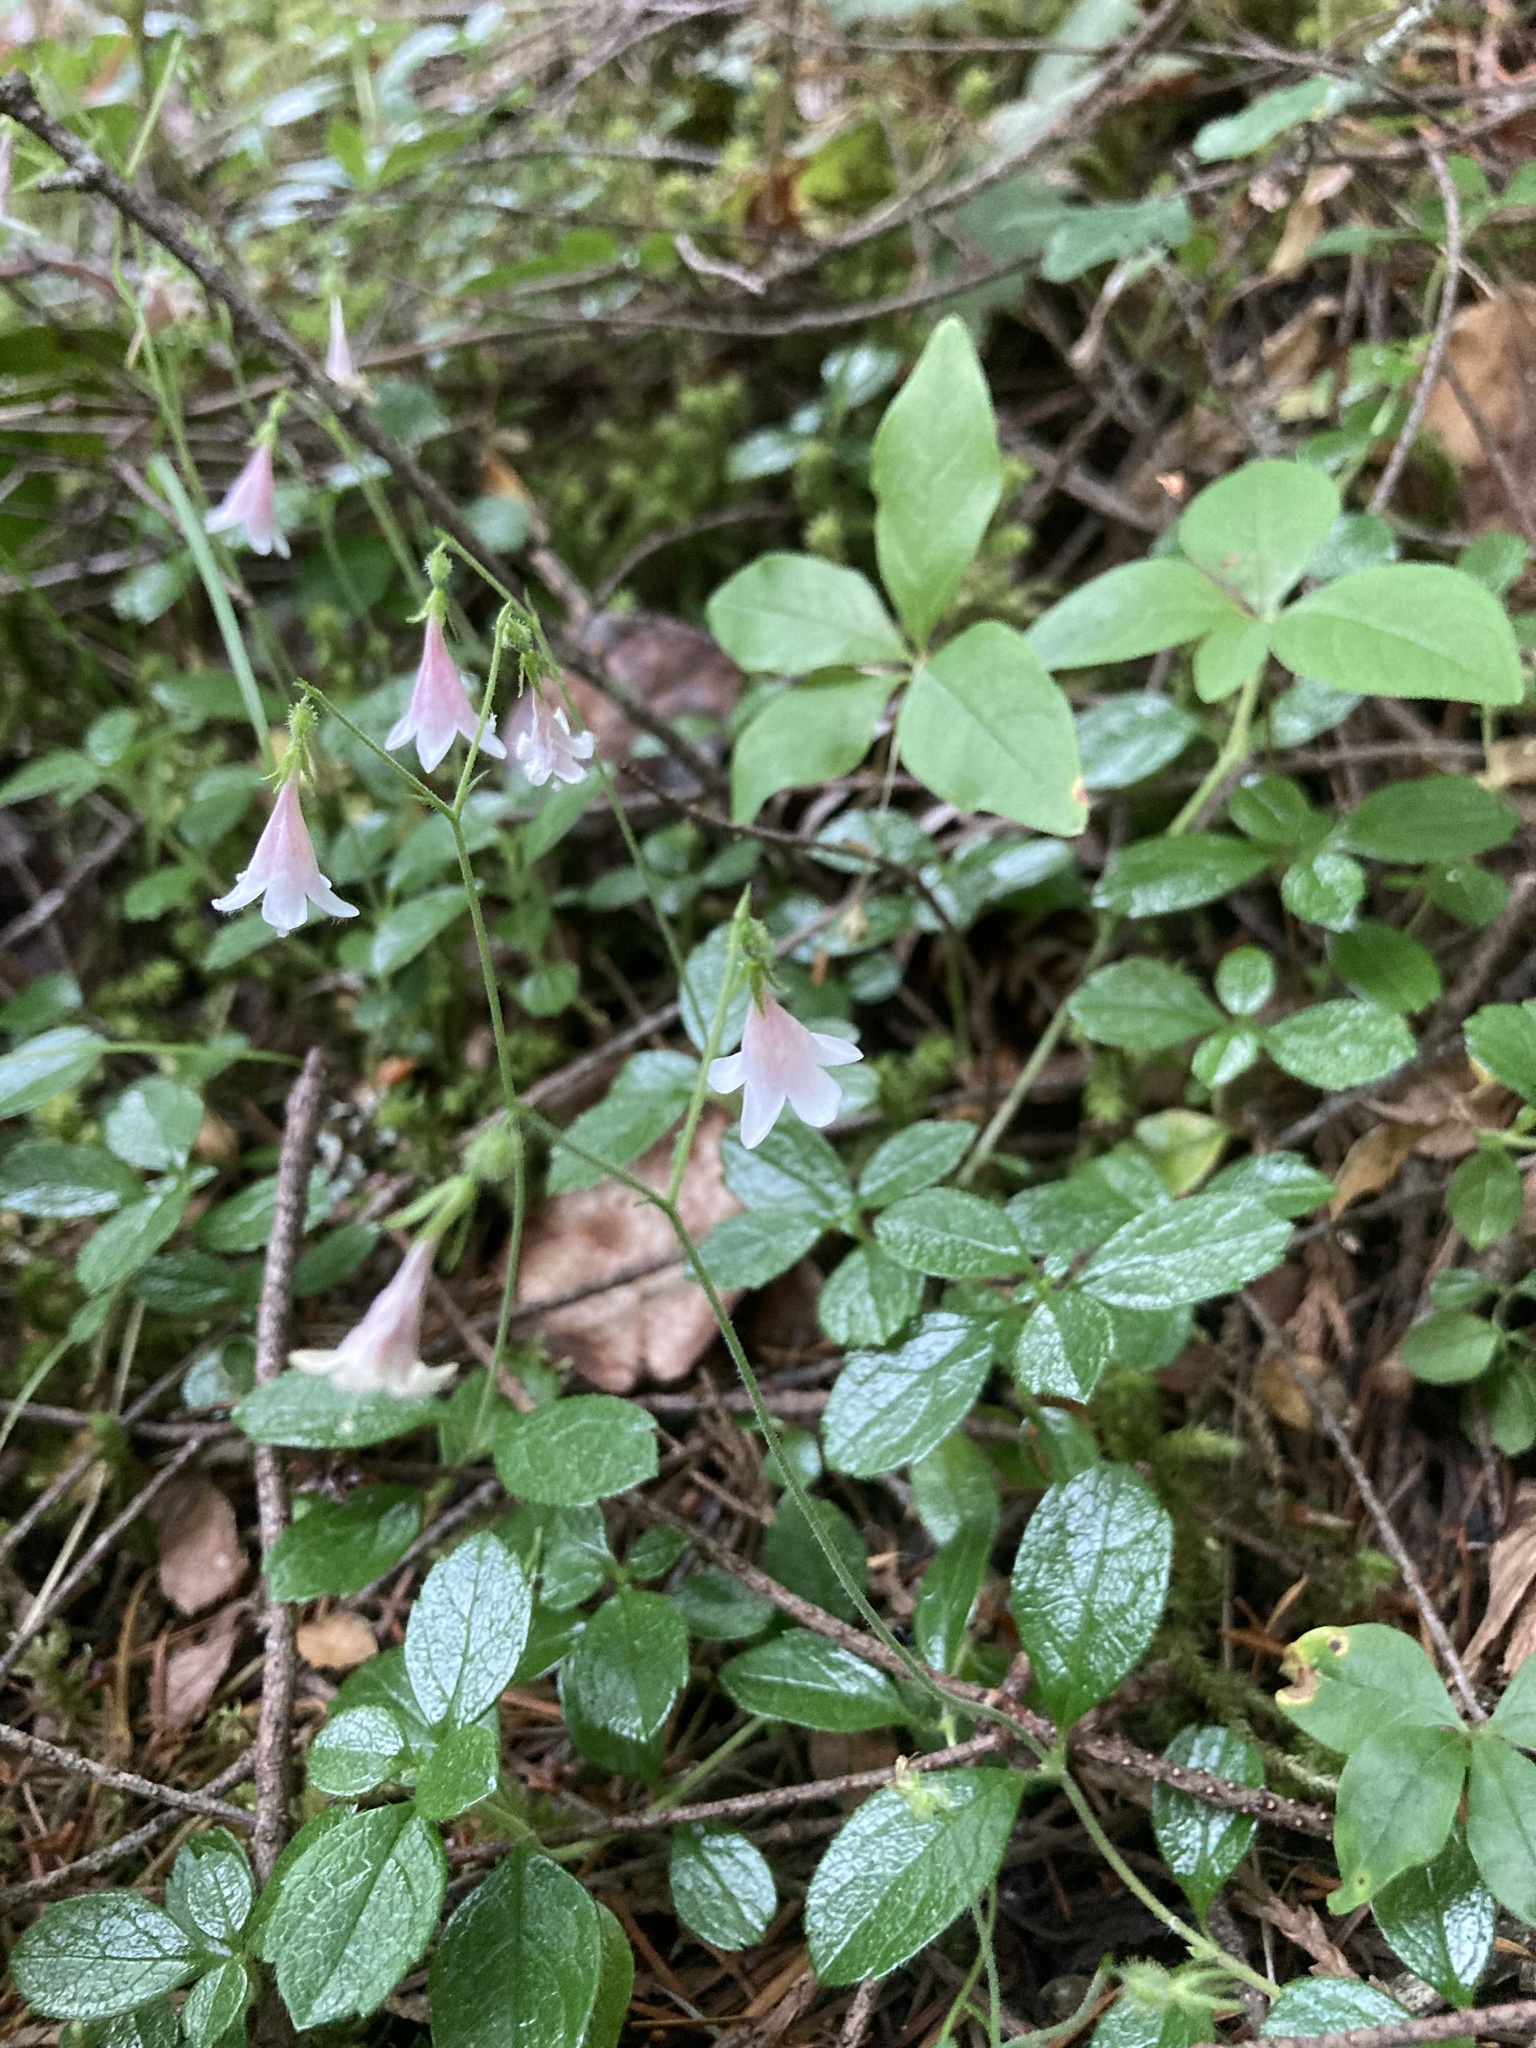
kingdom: Plantae
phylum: Tracheophyta
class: Magnoliopsida
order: Dipsacales
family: Caprifoliaceae
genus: Linnaea
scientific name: Linnaea borealis
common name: Twinflower
